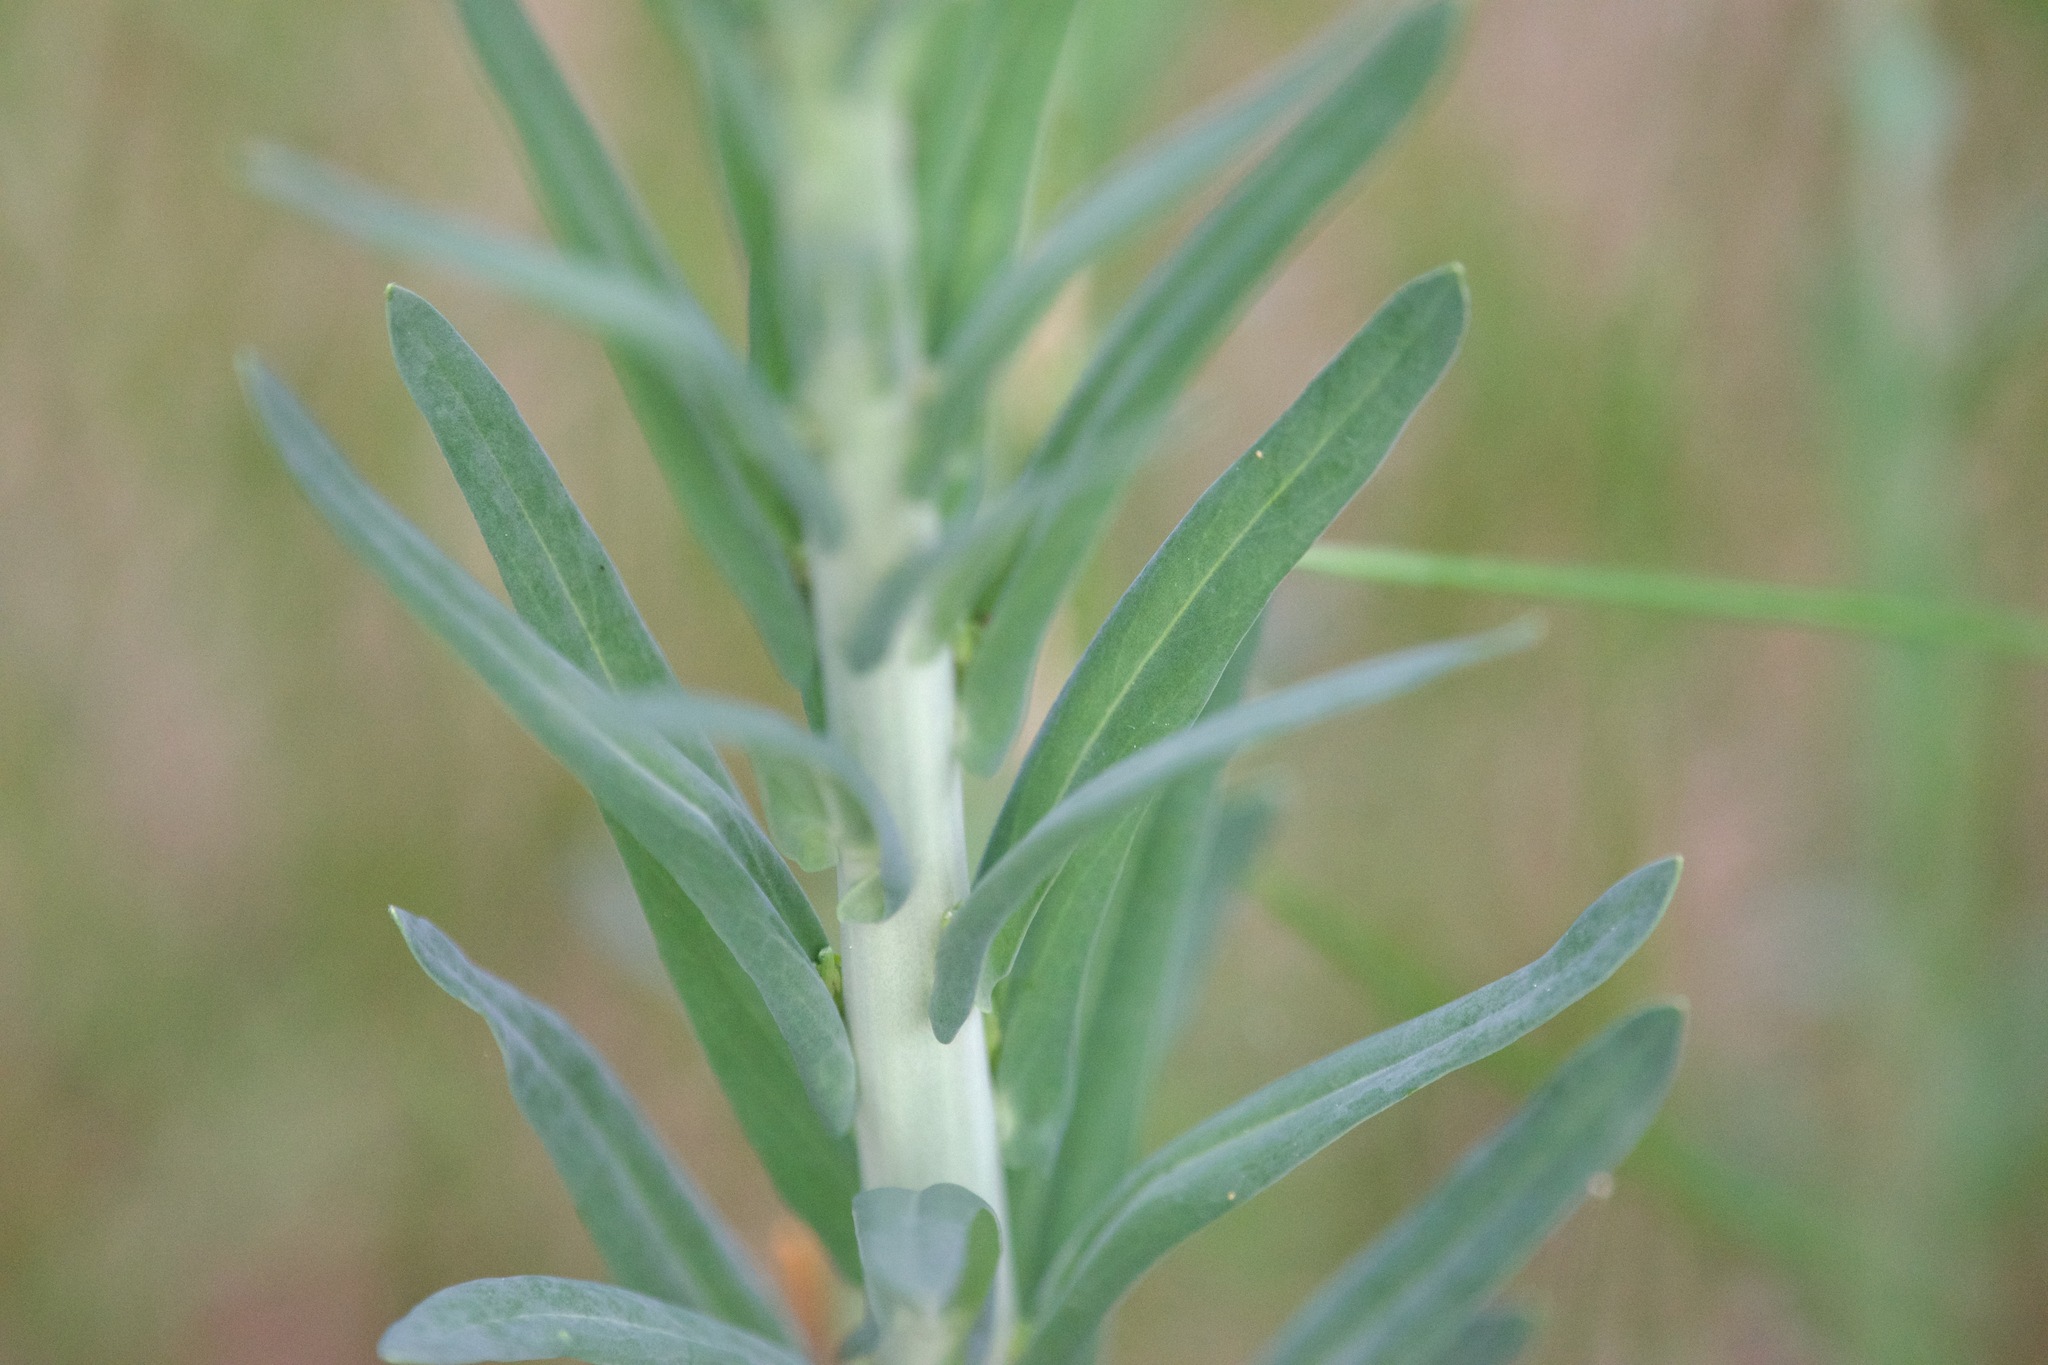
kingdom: Plantae
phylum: Tracheophyta
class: Magnoliopsida
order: Brassicales
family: Brassicaceae
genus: Boechera
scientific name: Boechera grahamii
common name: Graham's rockcress
